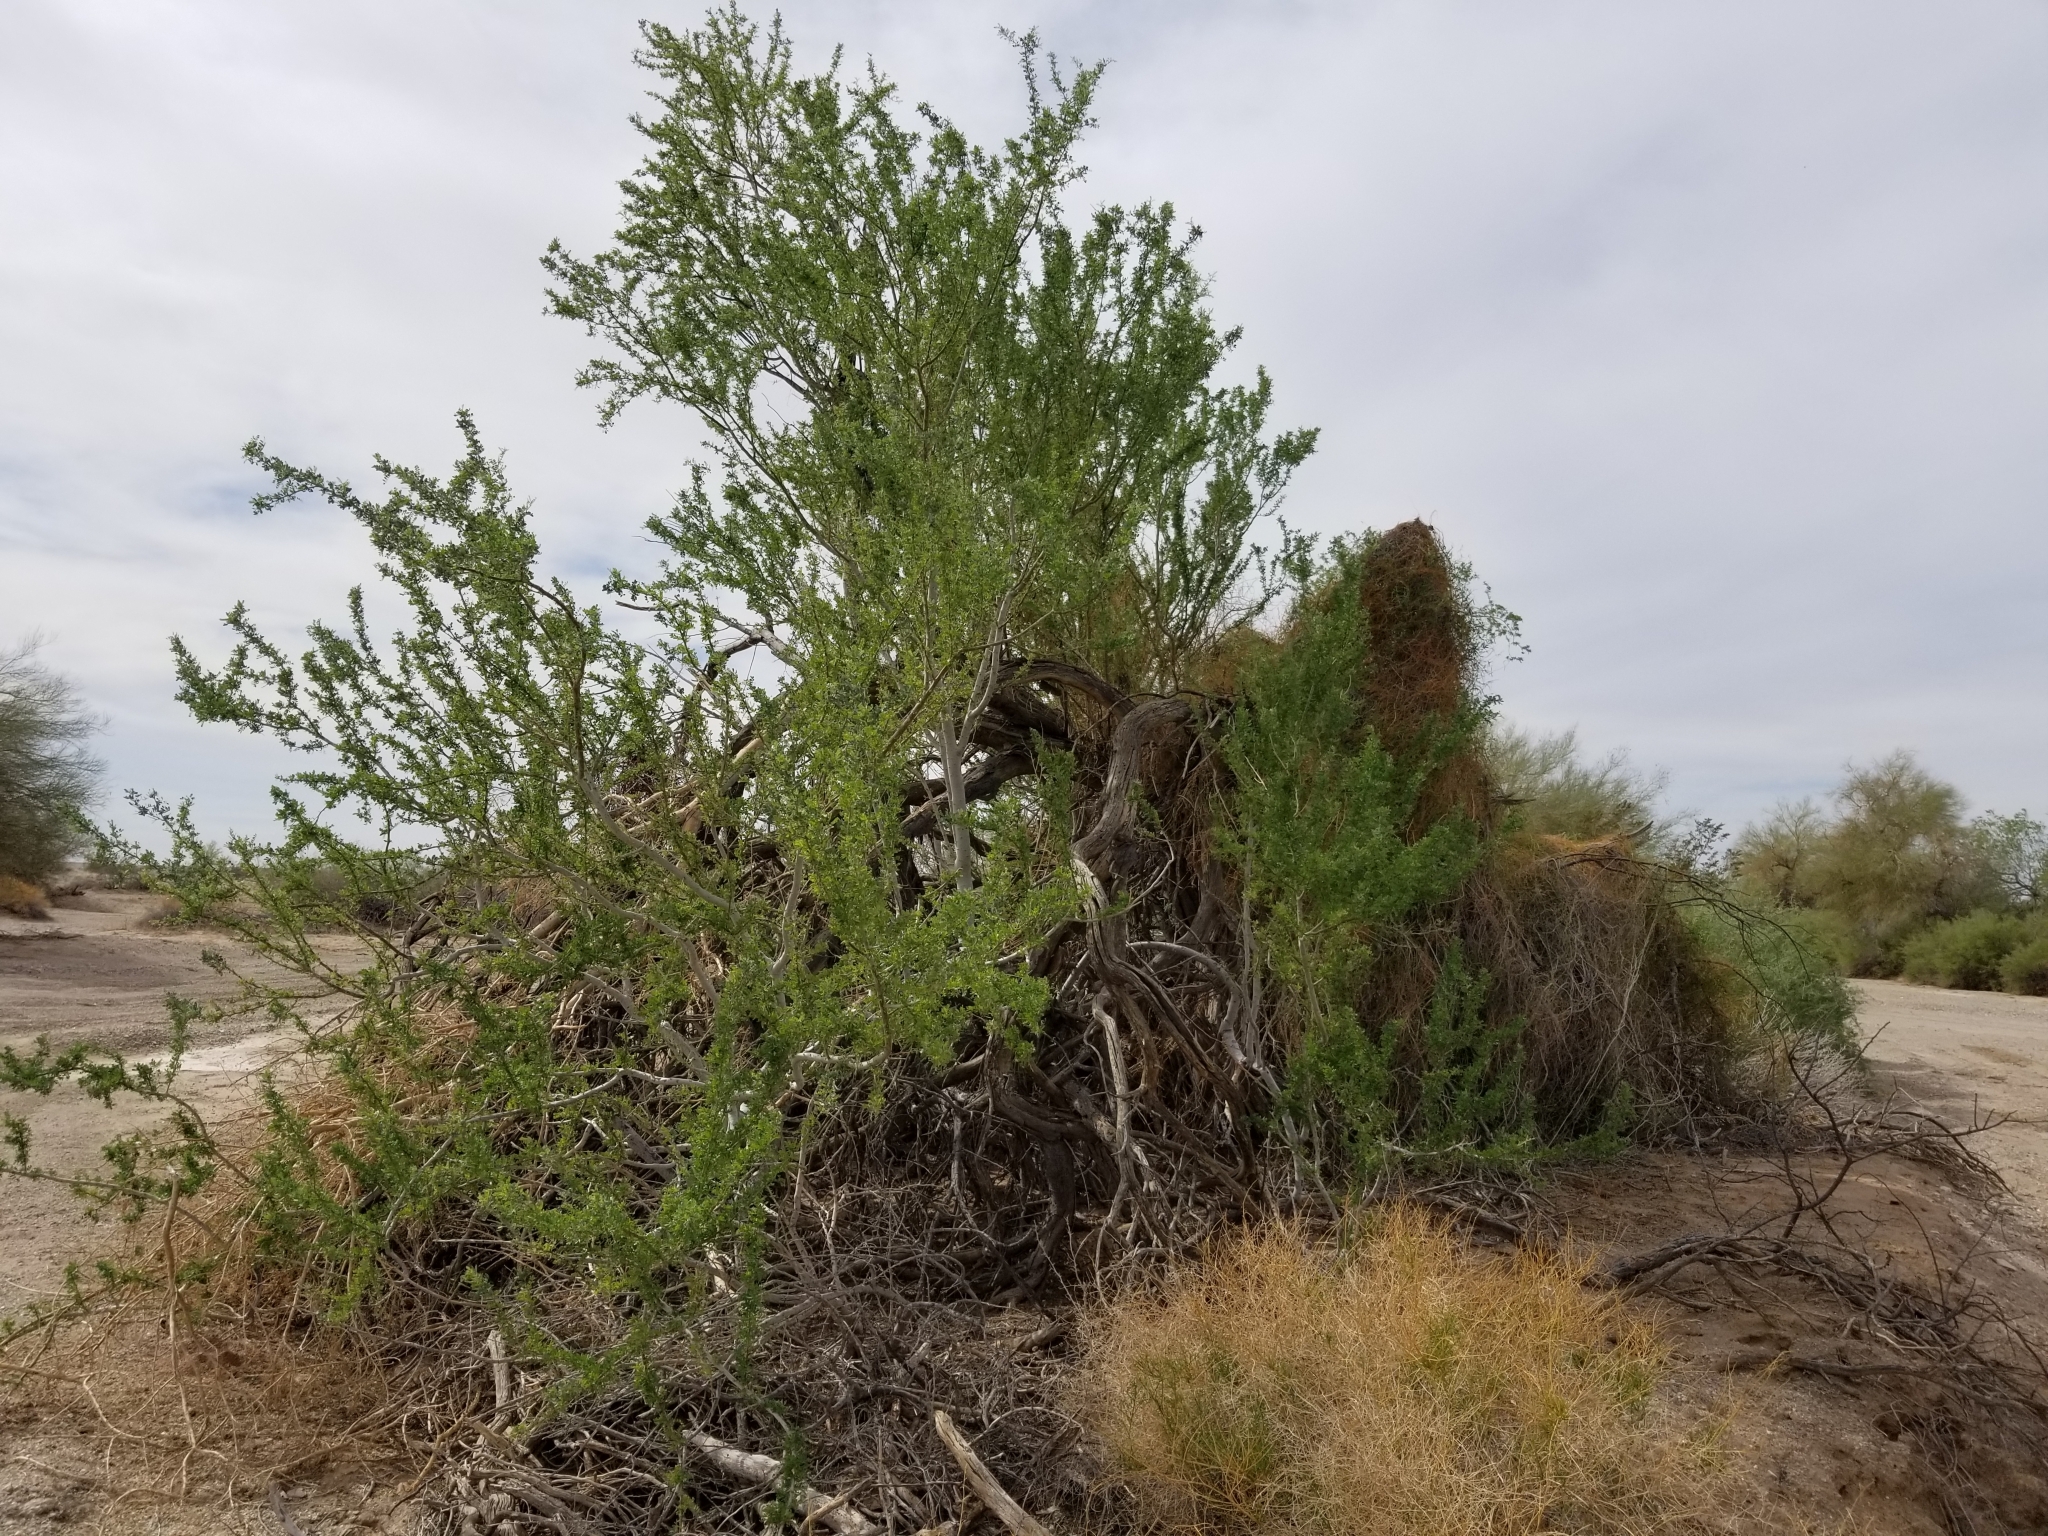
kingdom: Plantae
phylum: Tracheophyta
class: Magnoliopsida
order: Fabales
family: Fabaceae
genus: Senegalia
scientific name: Senegalia greggii
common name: Texas-mimosa
